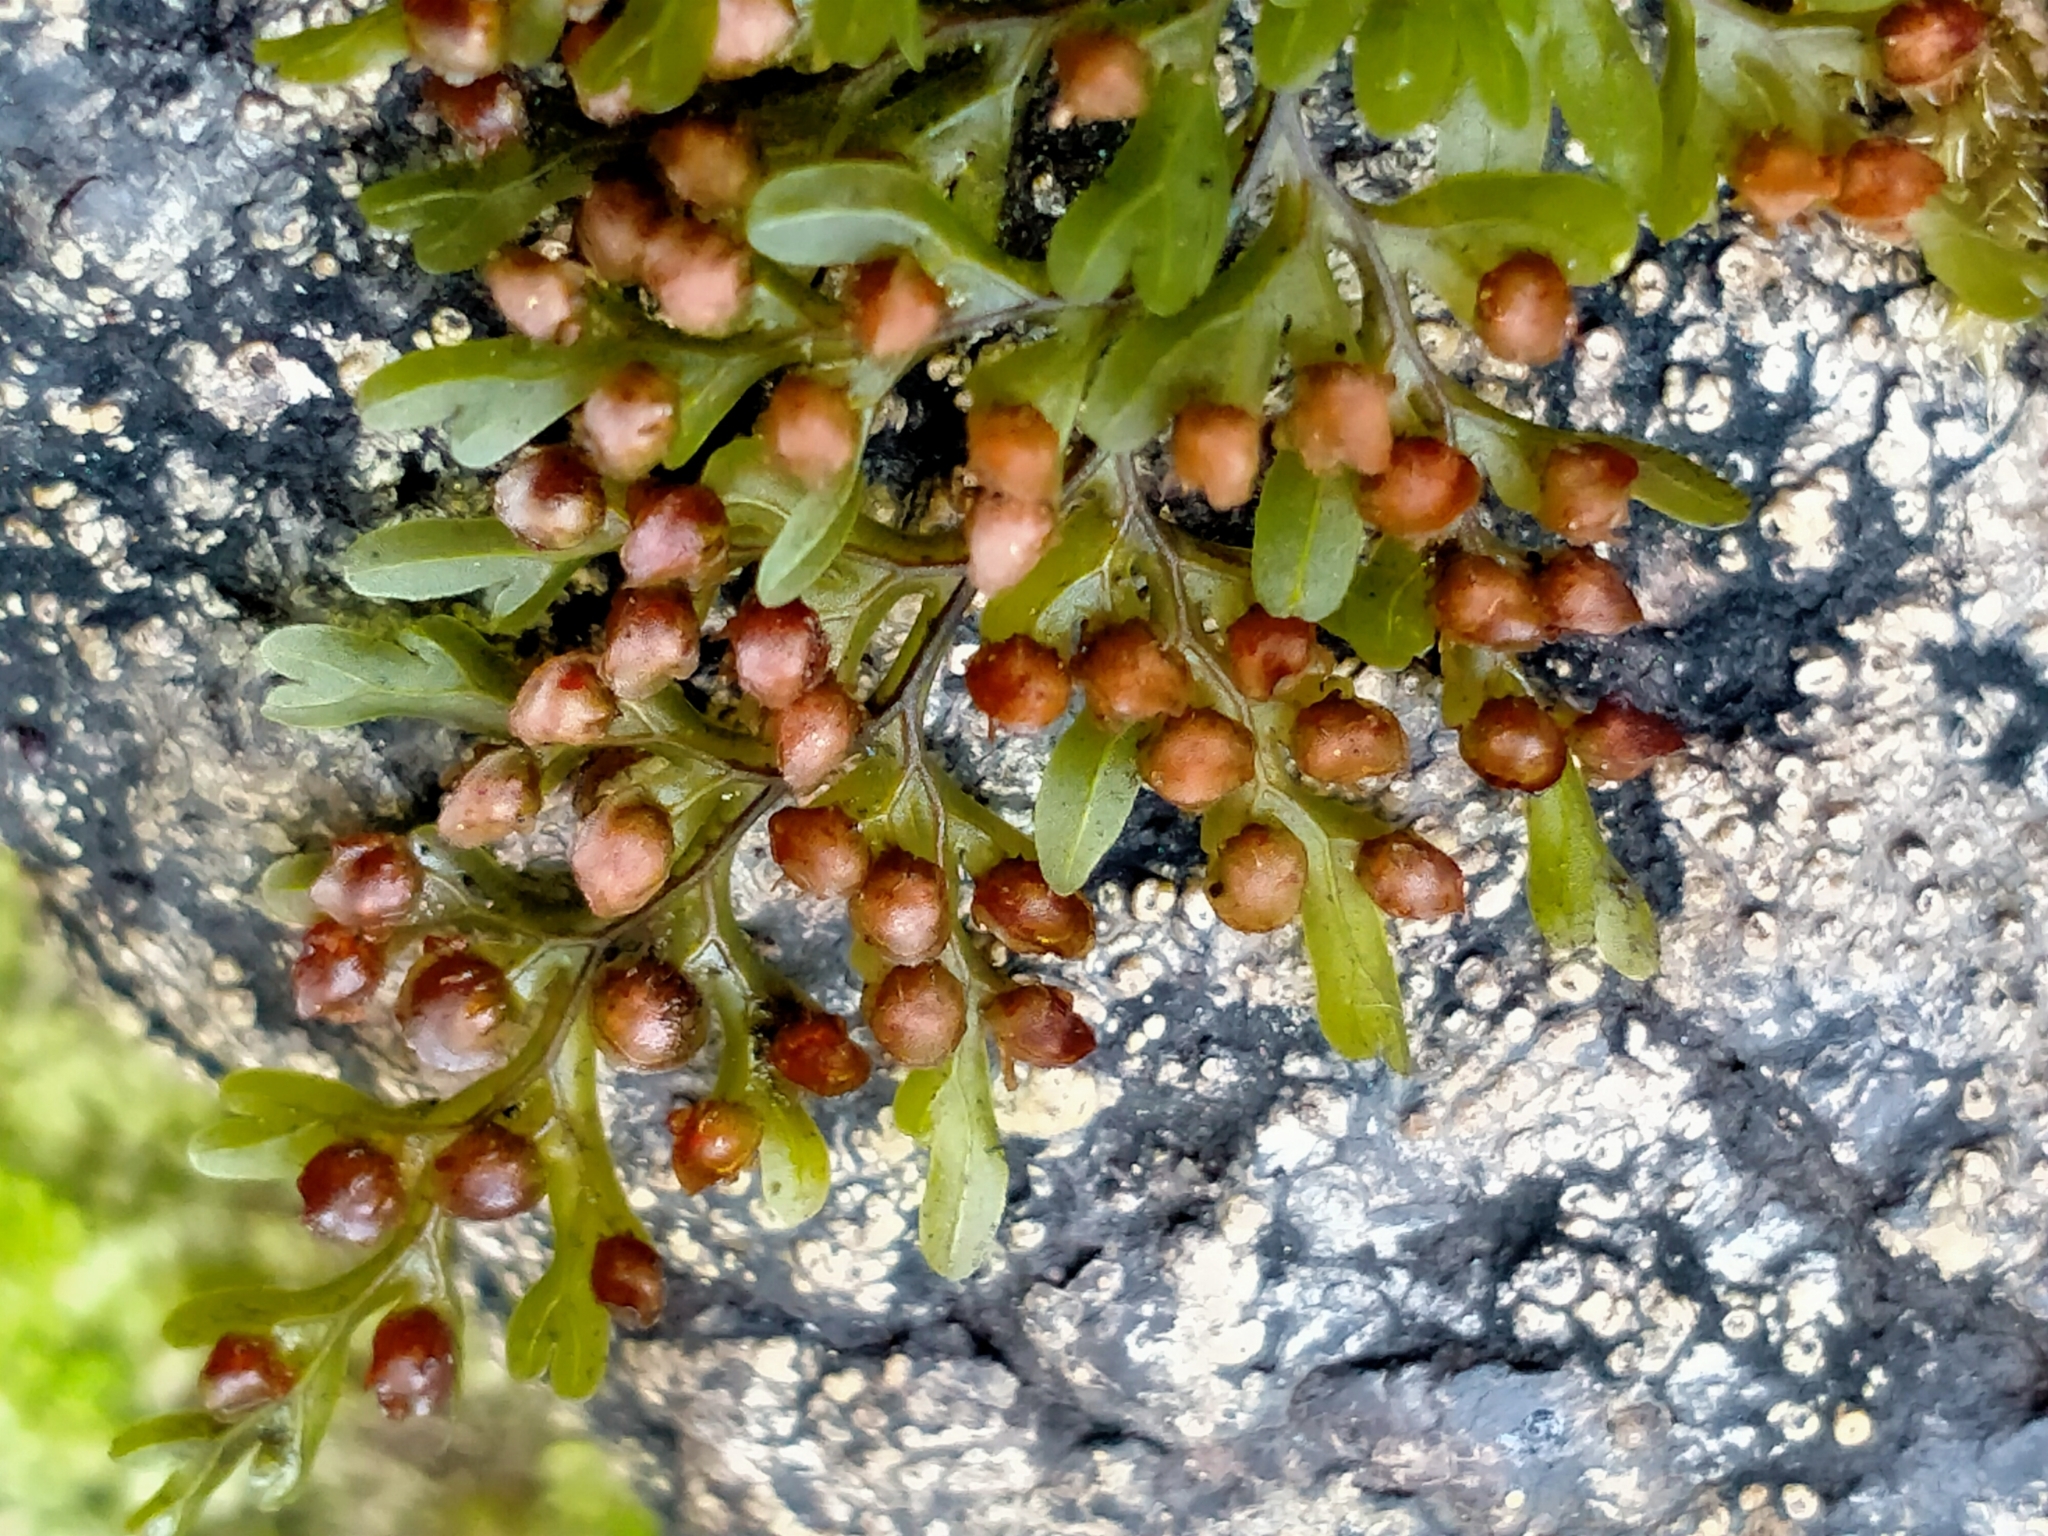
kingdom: Plantae
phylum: Tracheophyta
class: Polypodiopsida
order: Hymenophyllales
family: Hymenophyllaceae
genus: Hymenophyllum
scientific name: Hymenophyllum sanguinolentum
